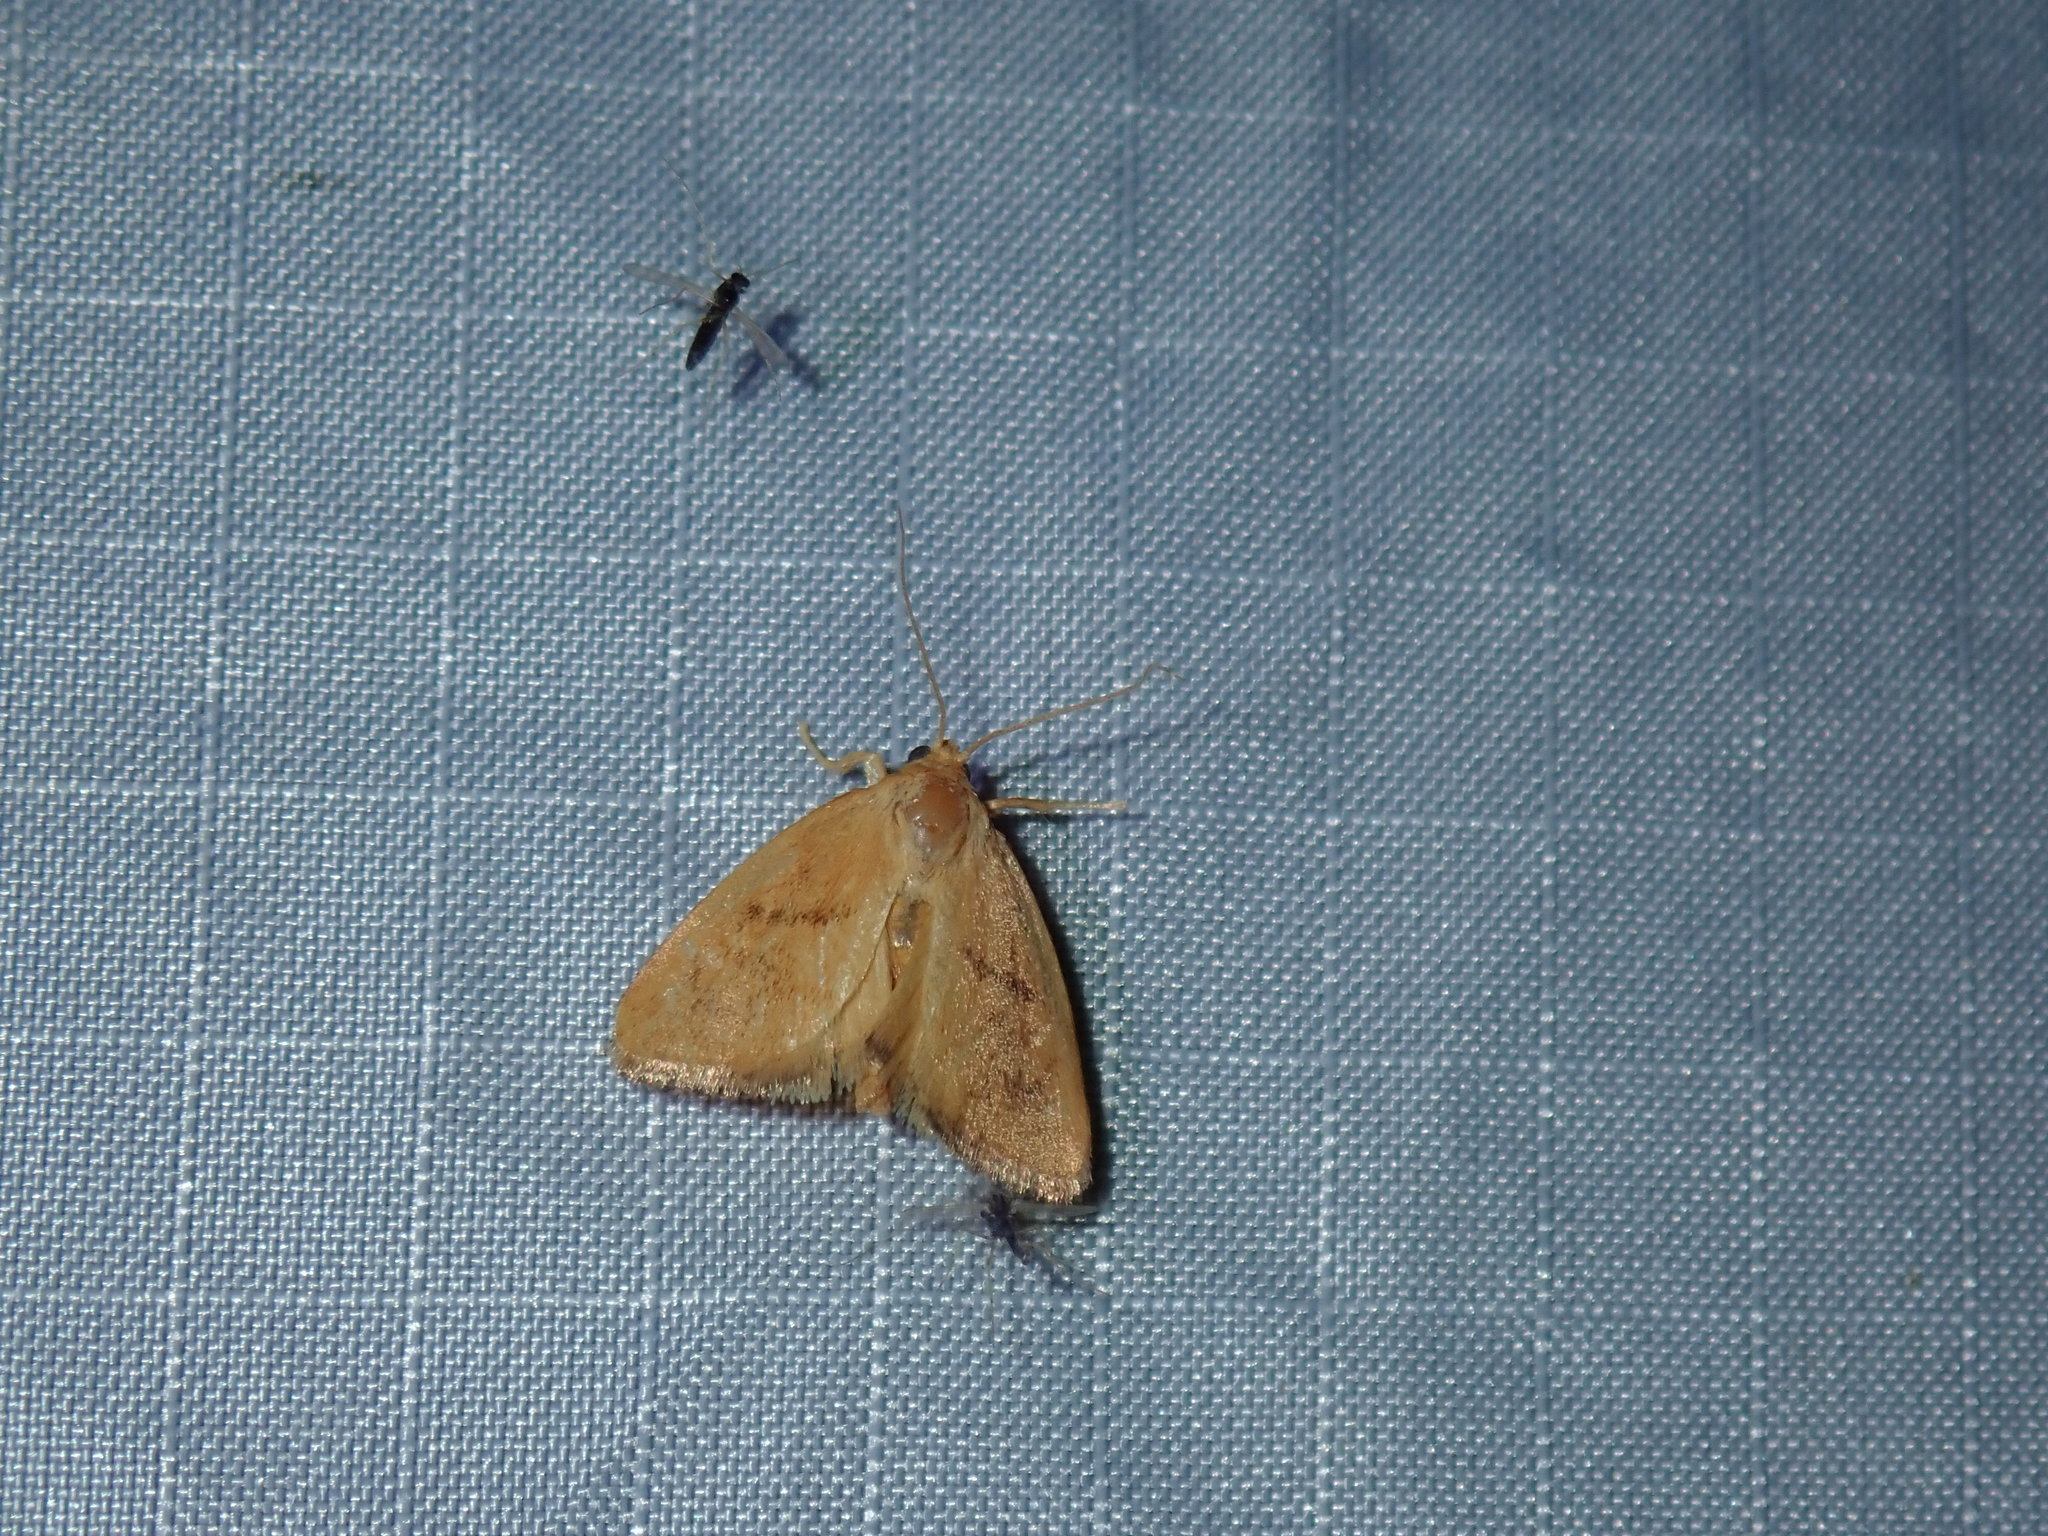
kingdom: Animalia
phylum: Arthropoda
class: Insecta
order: Lepidoptera
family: Limacodidae
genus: Tortricidia
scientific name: Tortricidia flexuosa
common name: Abbreviated button slug moth
